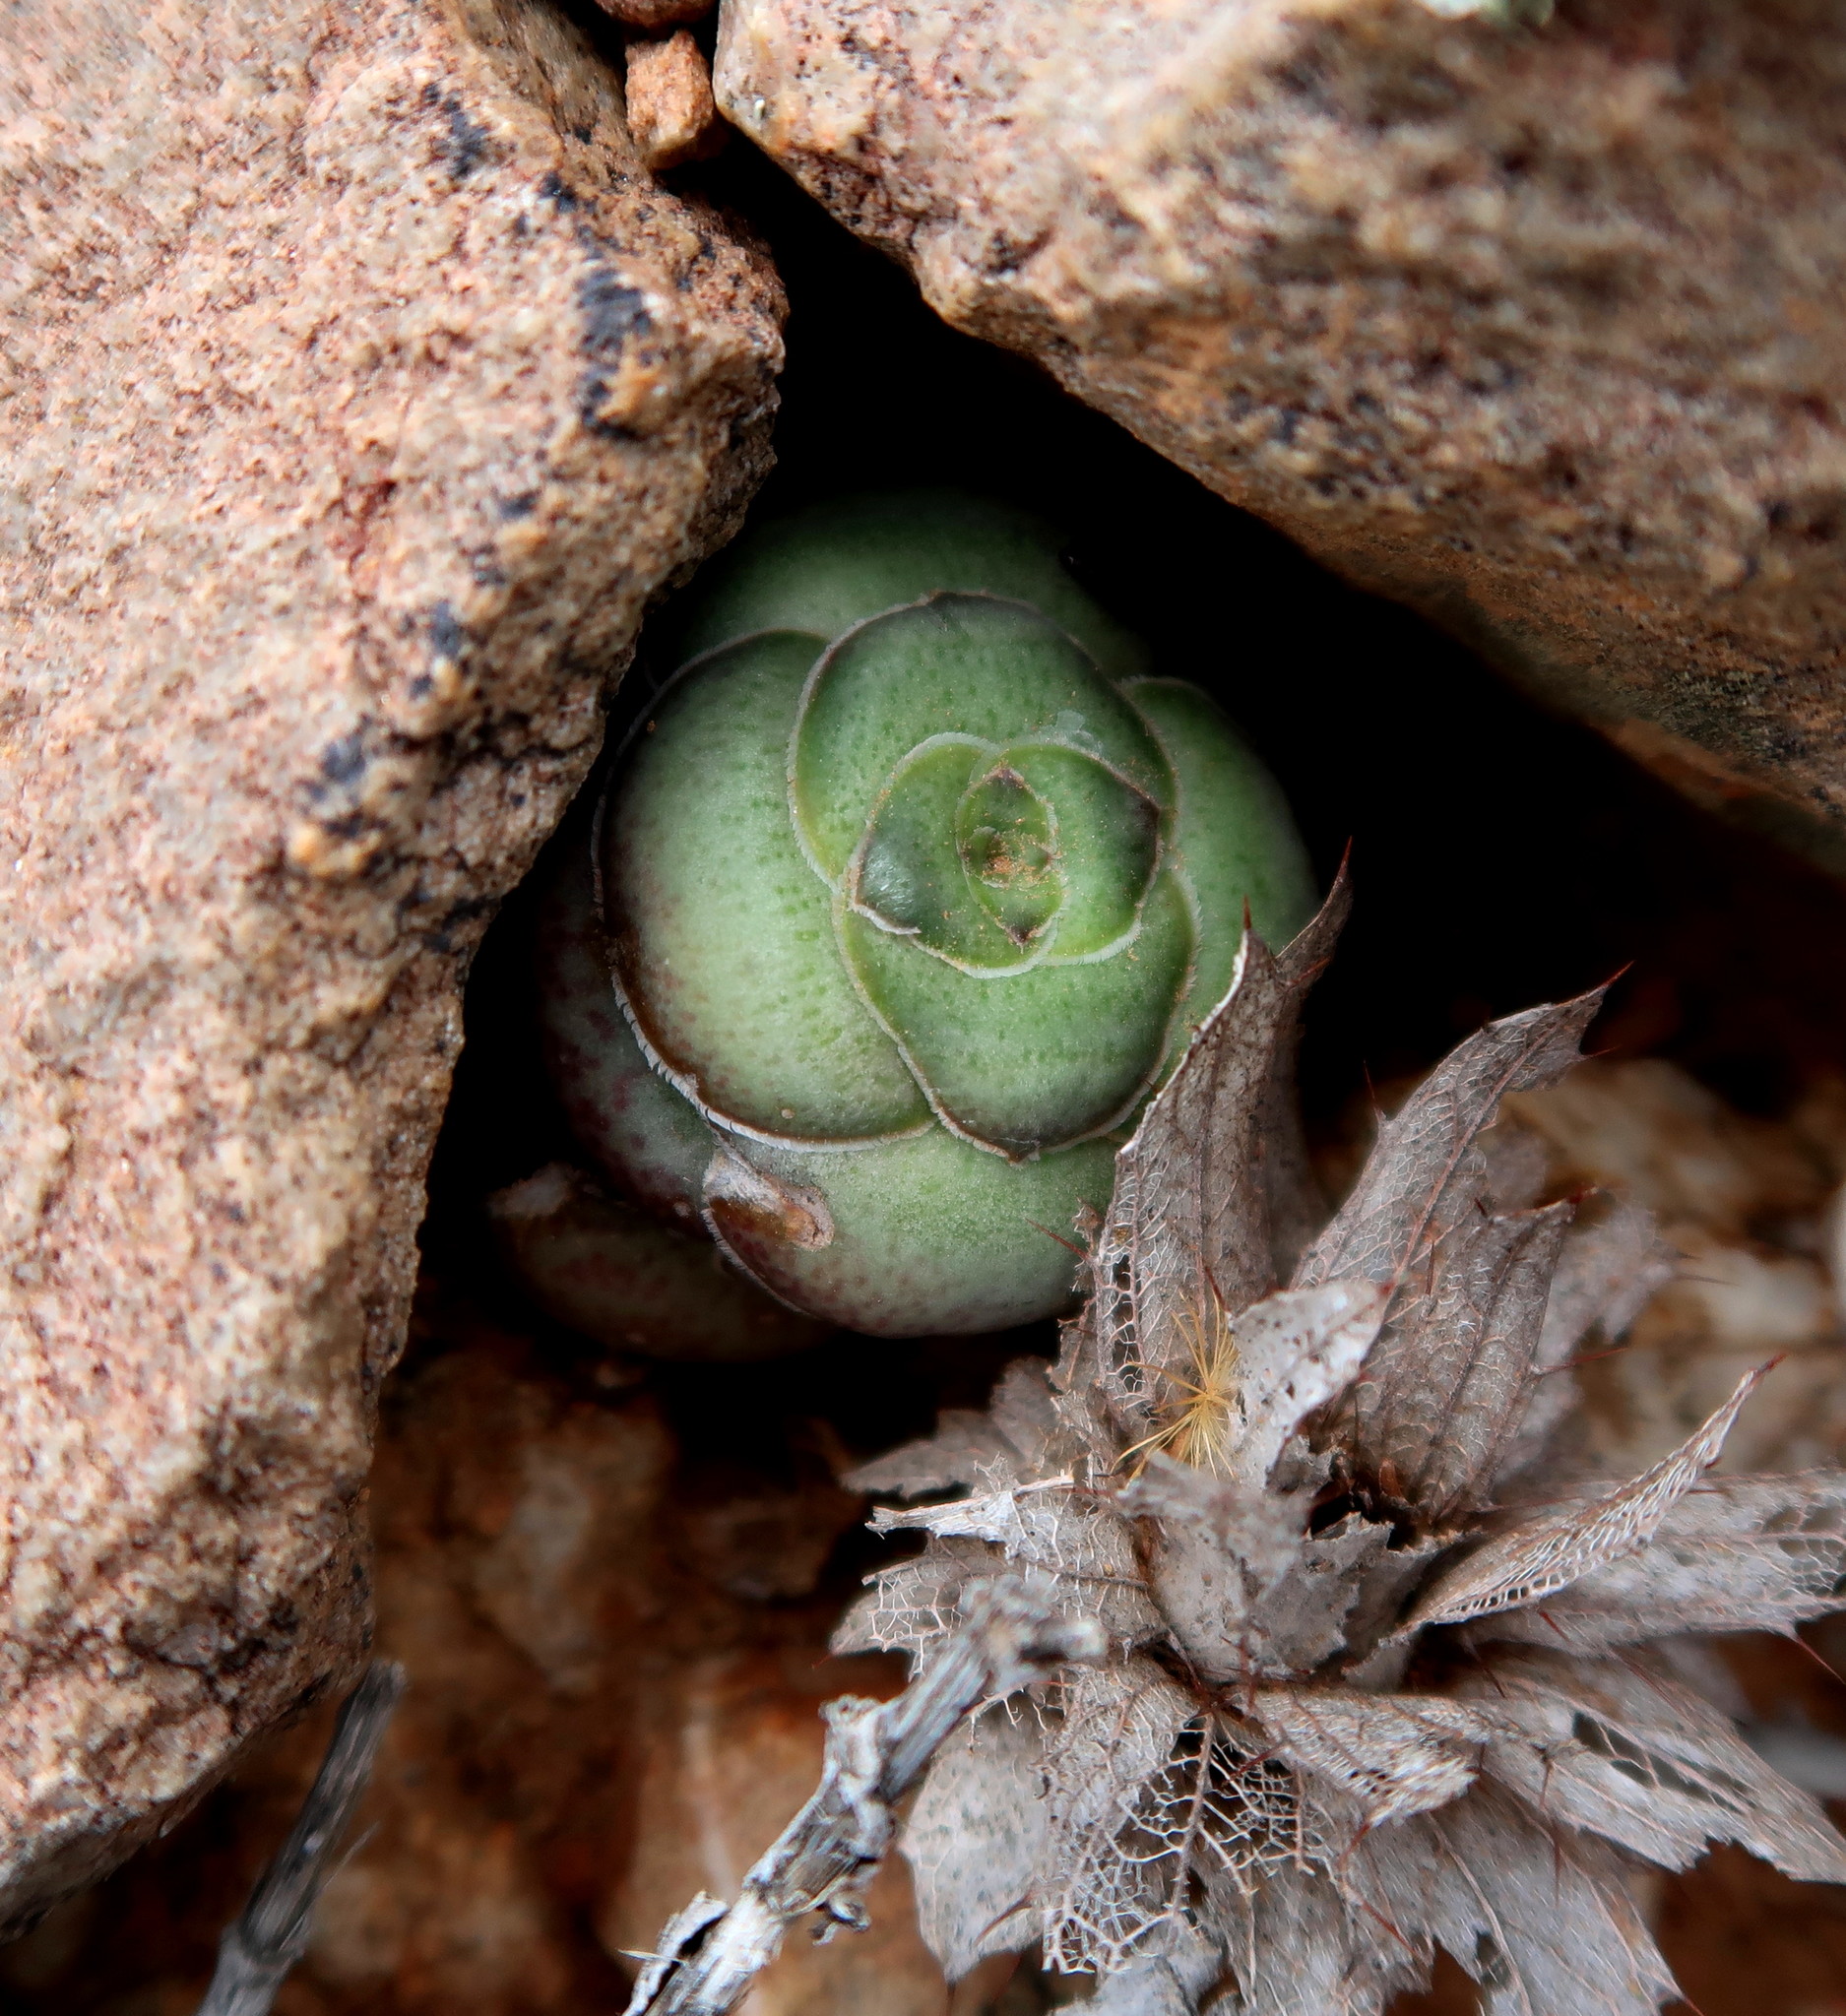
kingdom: Plantae
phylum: Tracheophyta
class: Magnoliopsida
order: Saxifragales
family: Crassulaceae
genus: Crassula
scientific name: Crassula hemisphaerica
